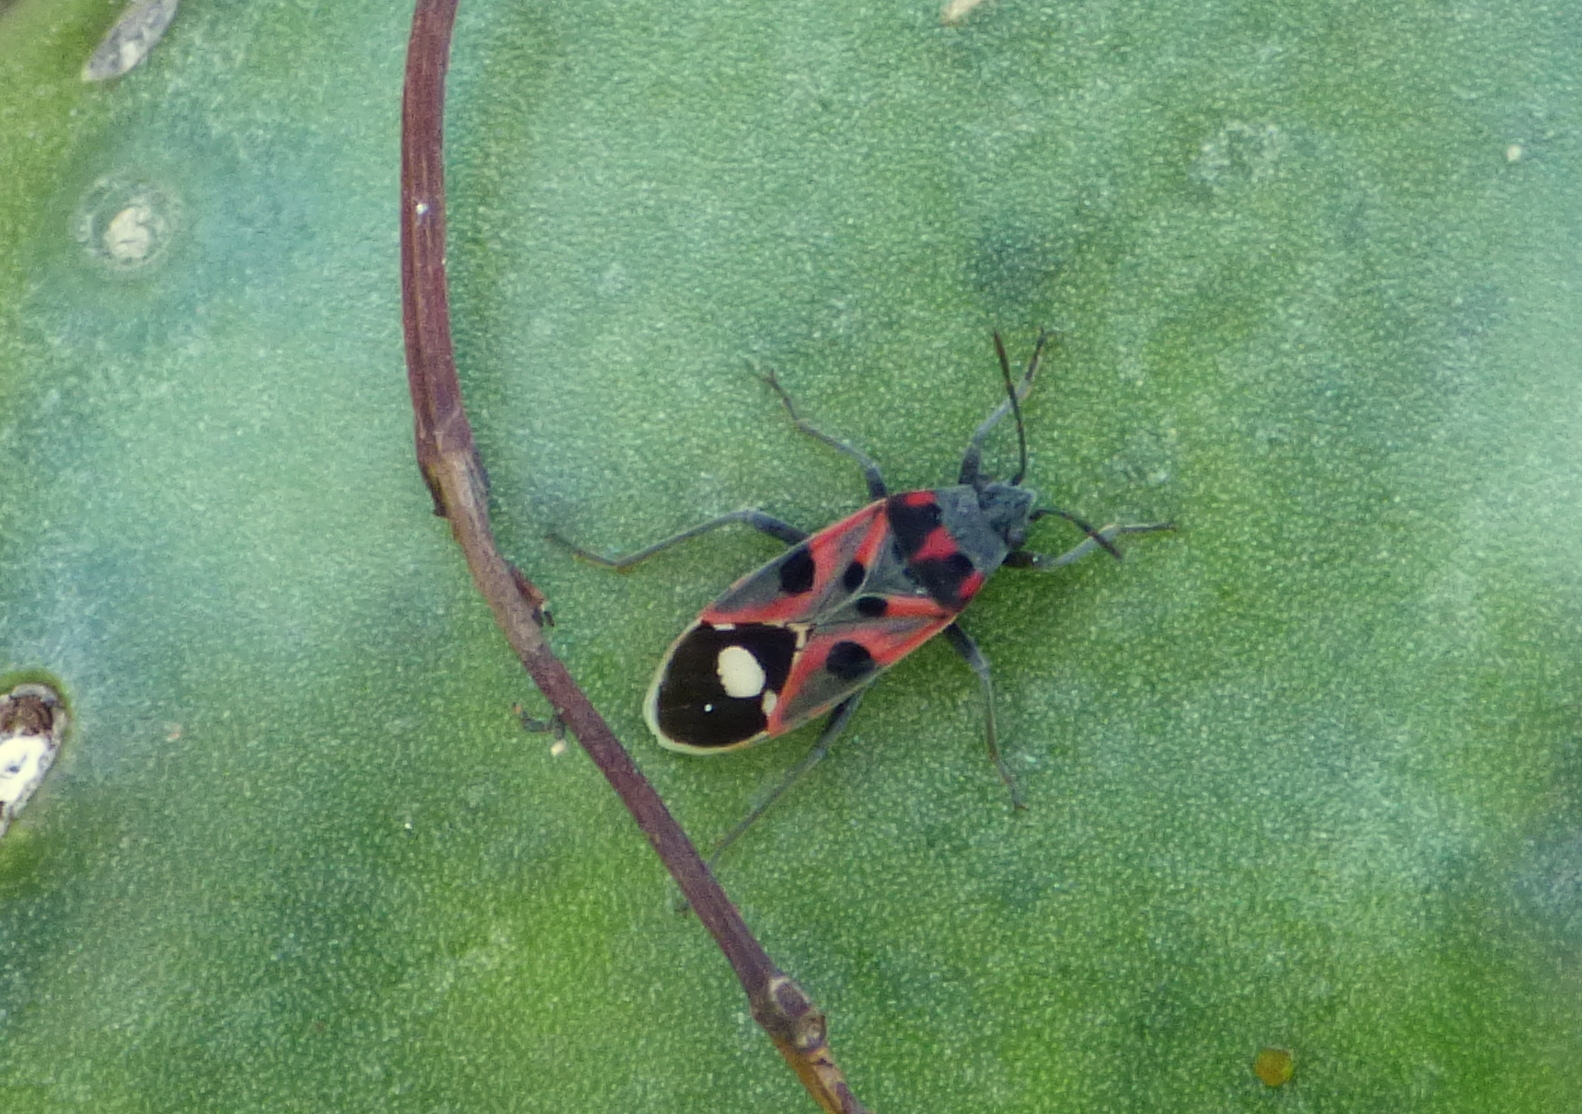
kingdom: Animalia
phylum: Arthropoda
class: Insecta
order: Hemiptera
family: Lygaeidae
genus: Lygaeus
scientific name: Lygaeus alboornatus
